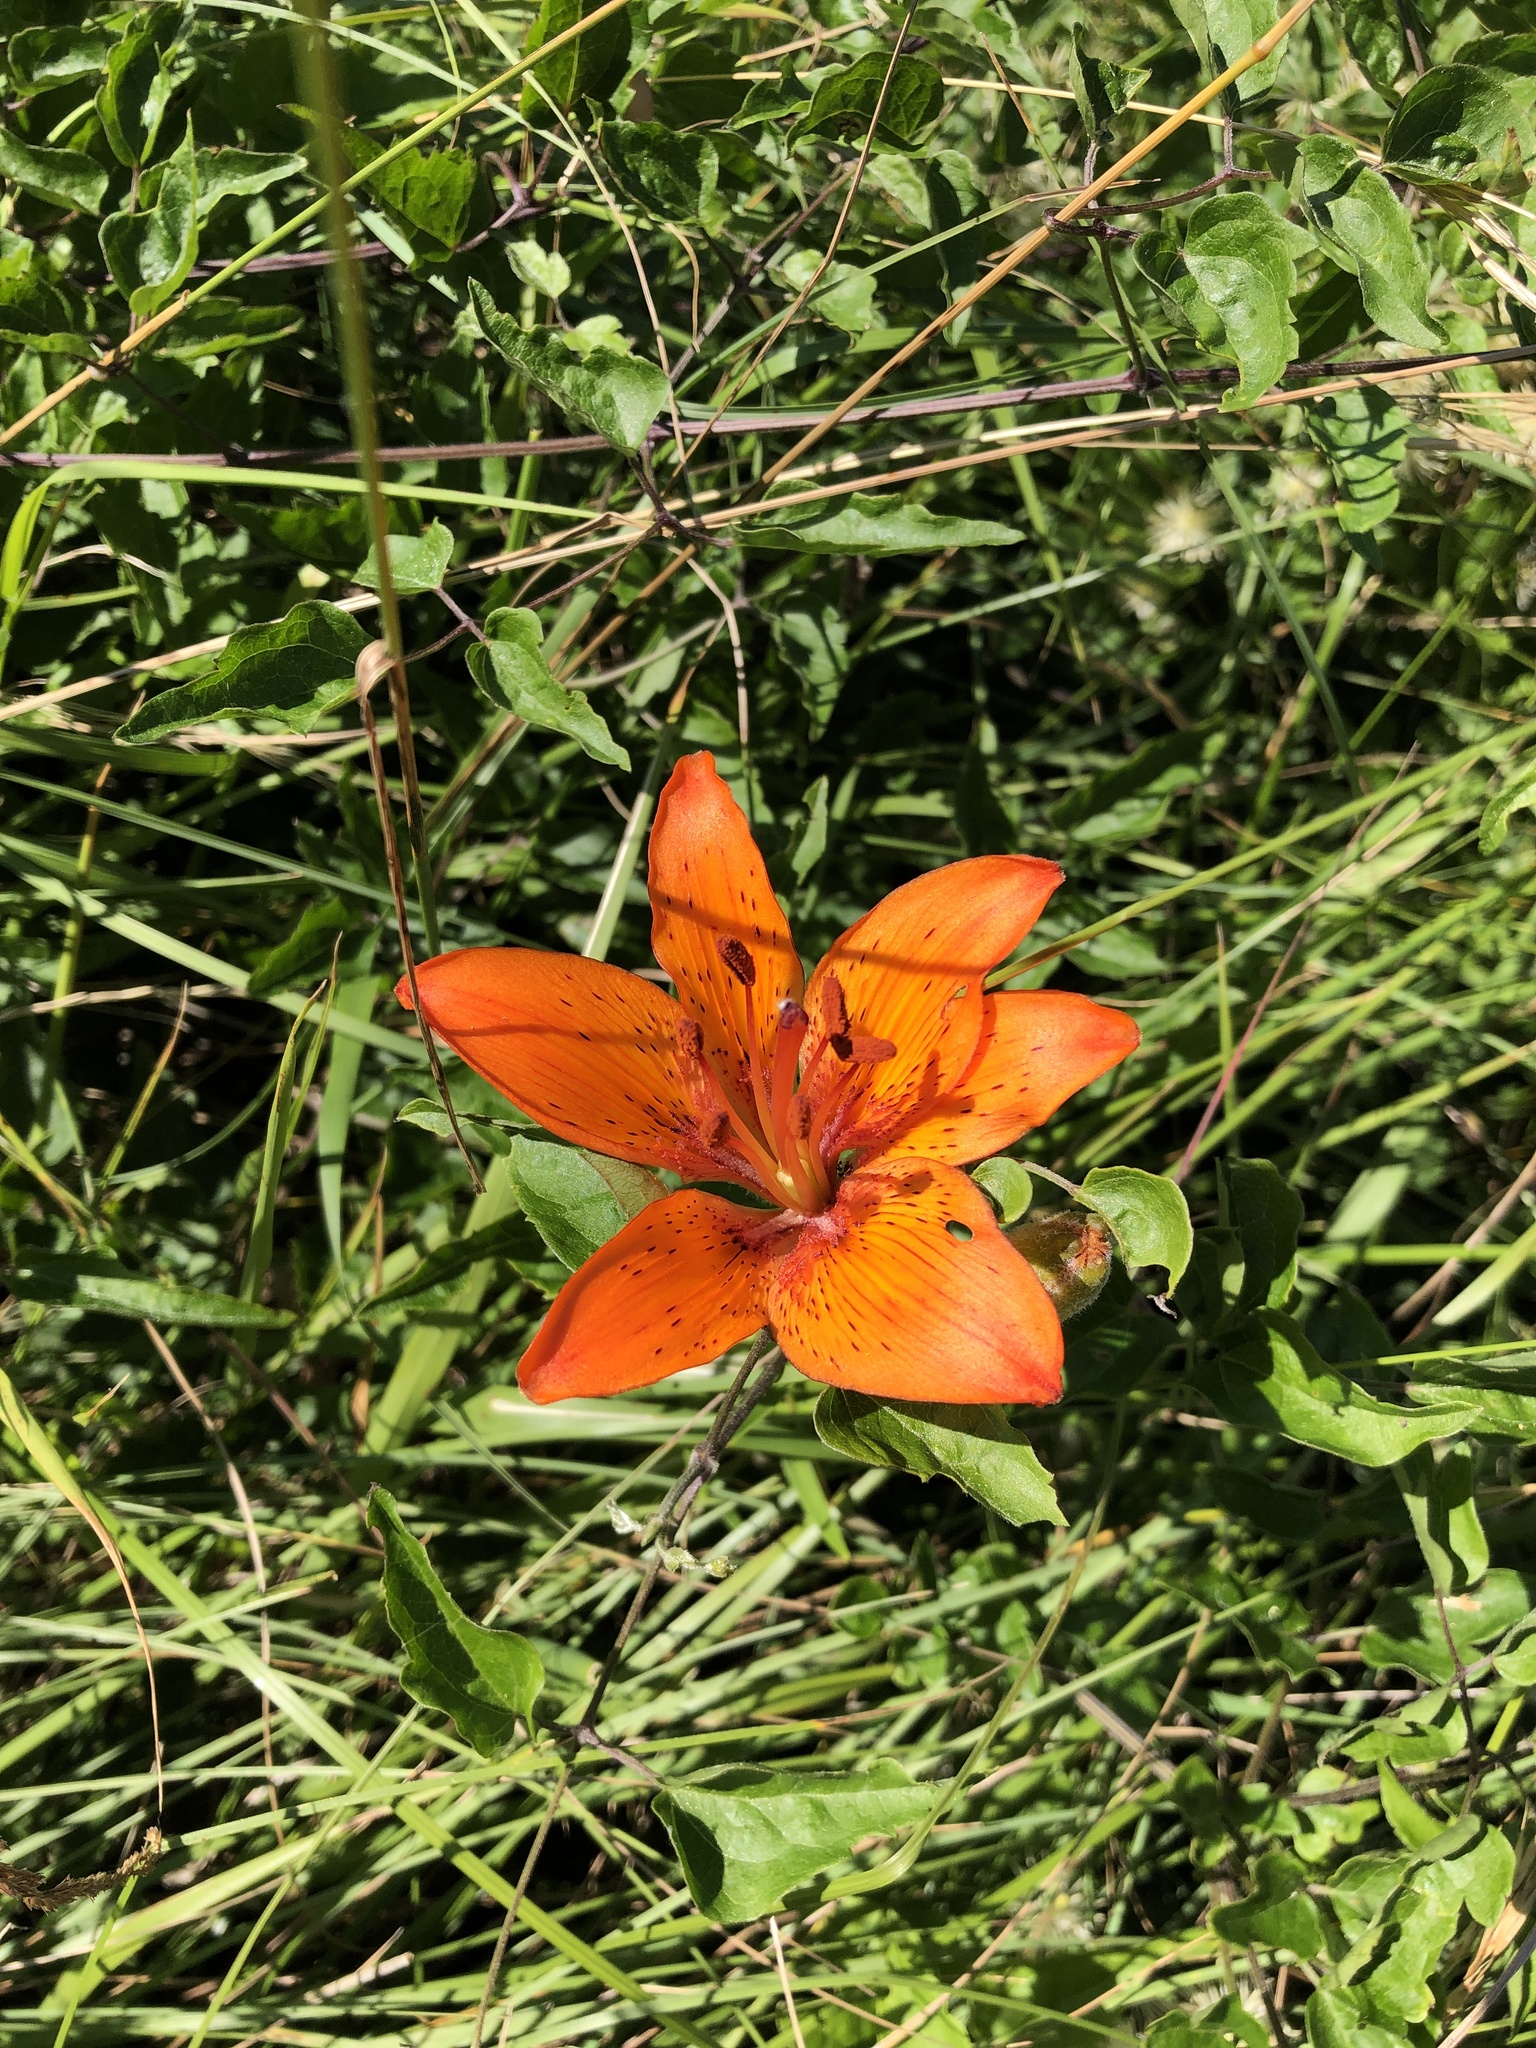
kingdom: Plantae
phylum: Tracheophyta
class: Liliopsida
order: Liliales
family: Liliaceae
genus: Lilium
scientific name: Lilium bulbiferum
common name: Orange lily
